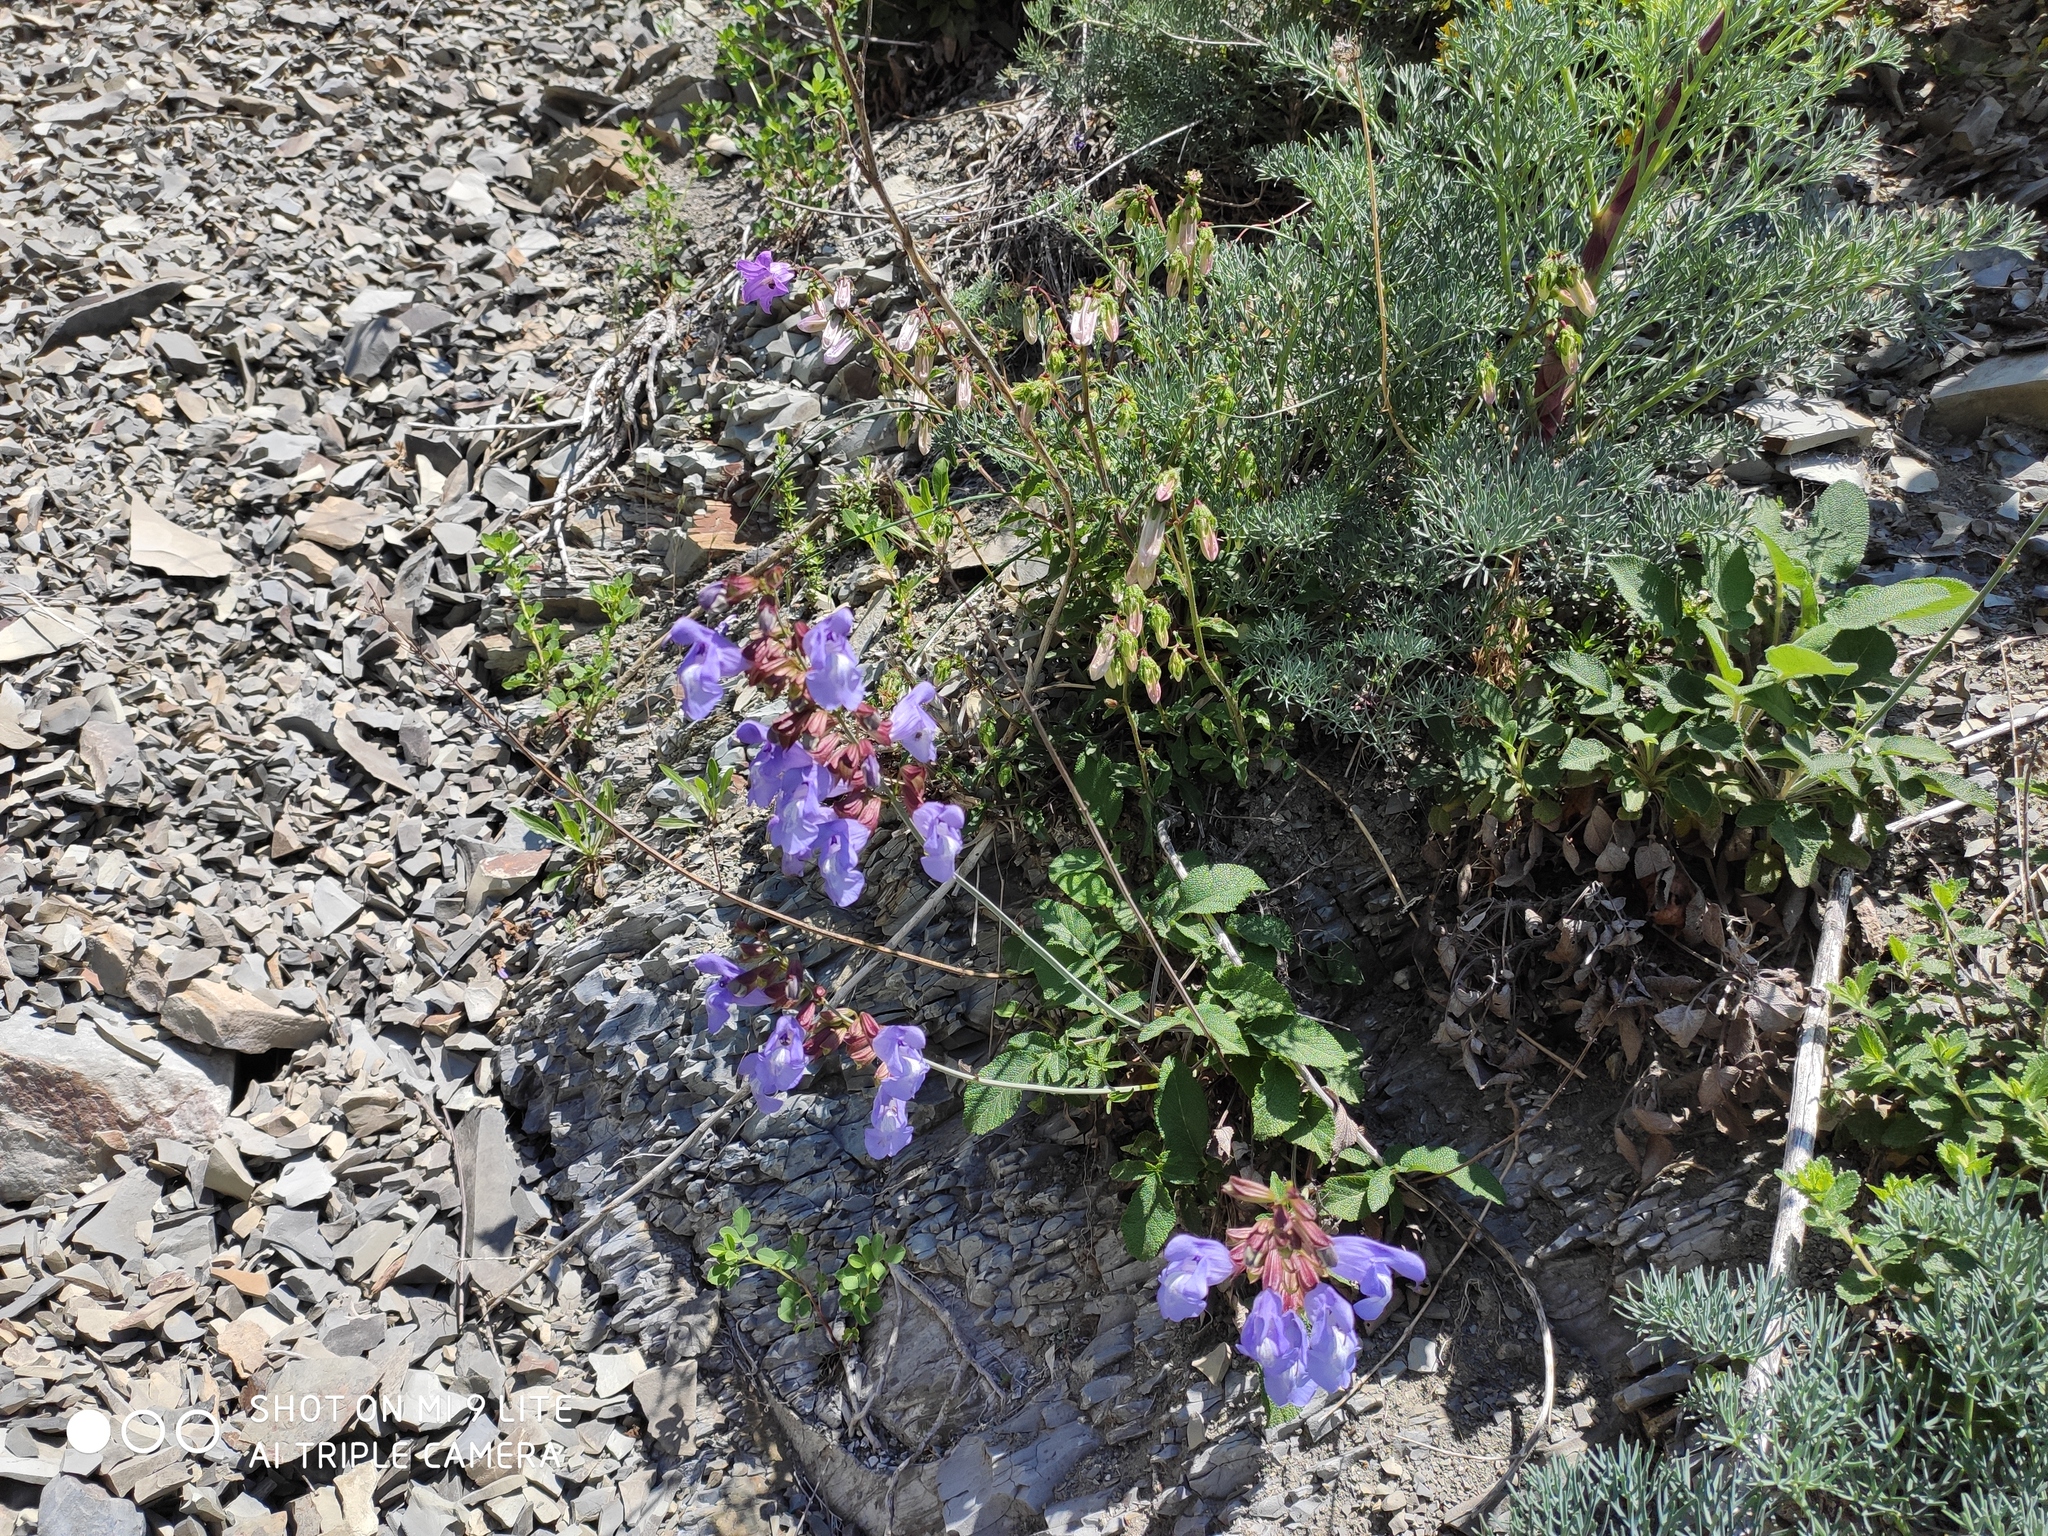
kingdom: Plantae
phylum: Tracheophyta
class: Magnoliopsida
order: Lamiales
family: Lamiaceae
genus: Salvia
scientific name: Salvia ringens
